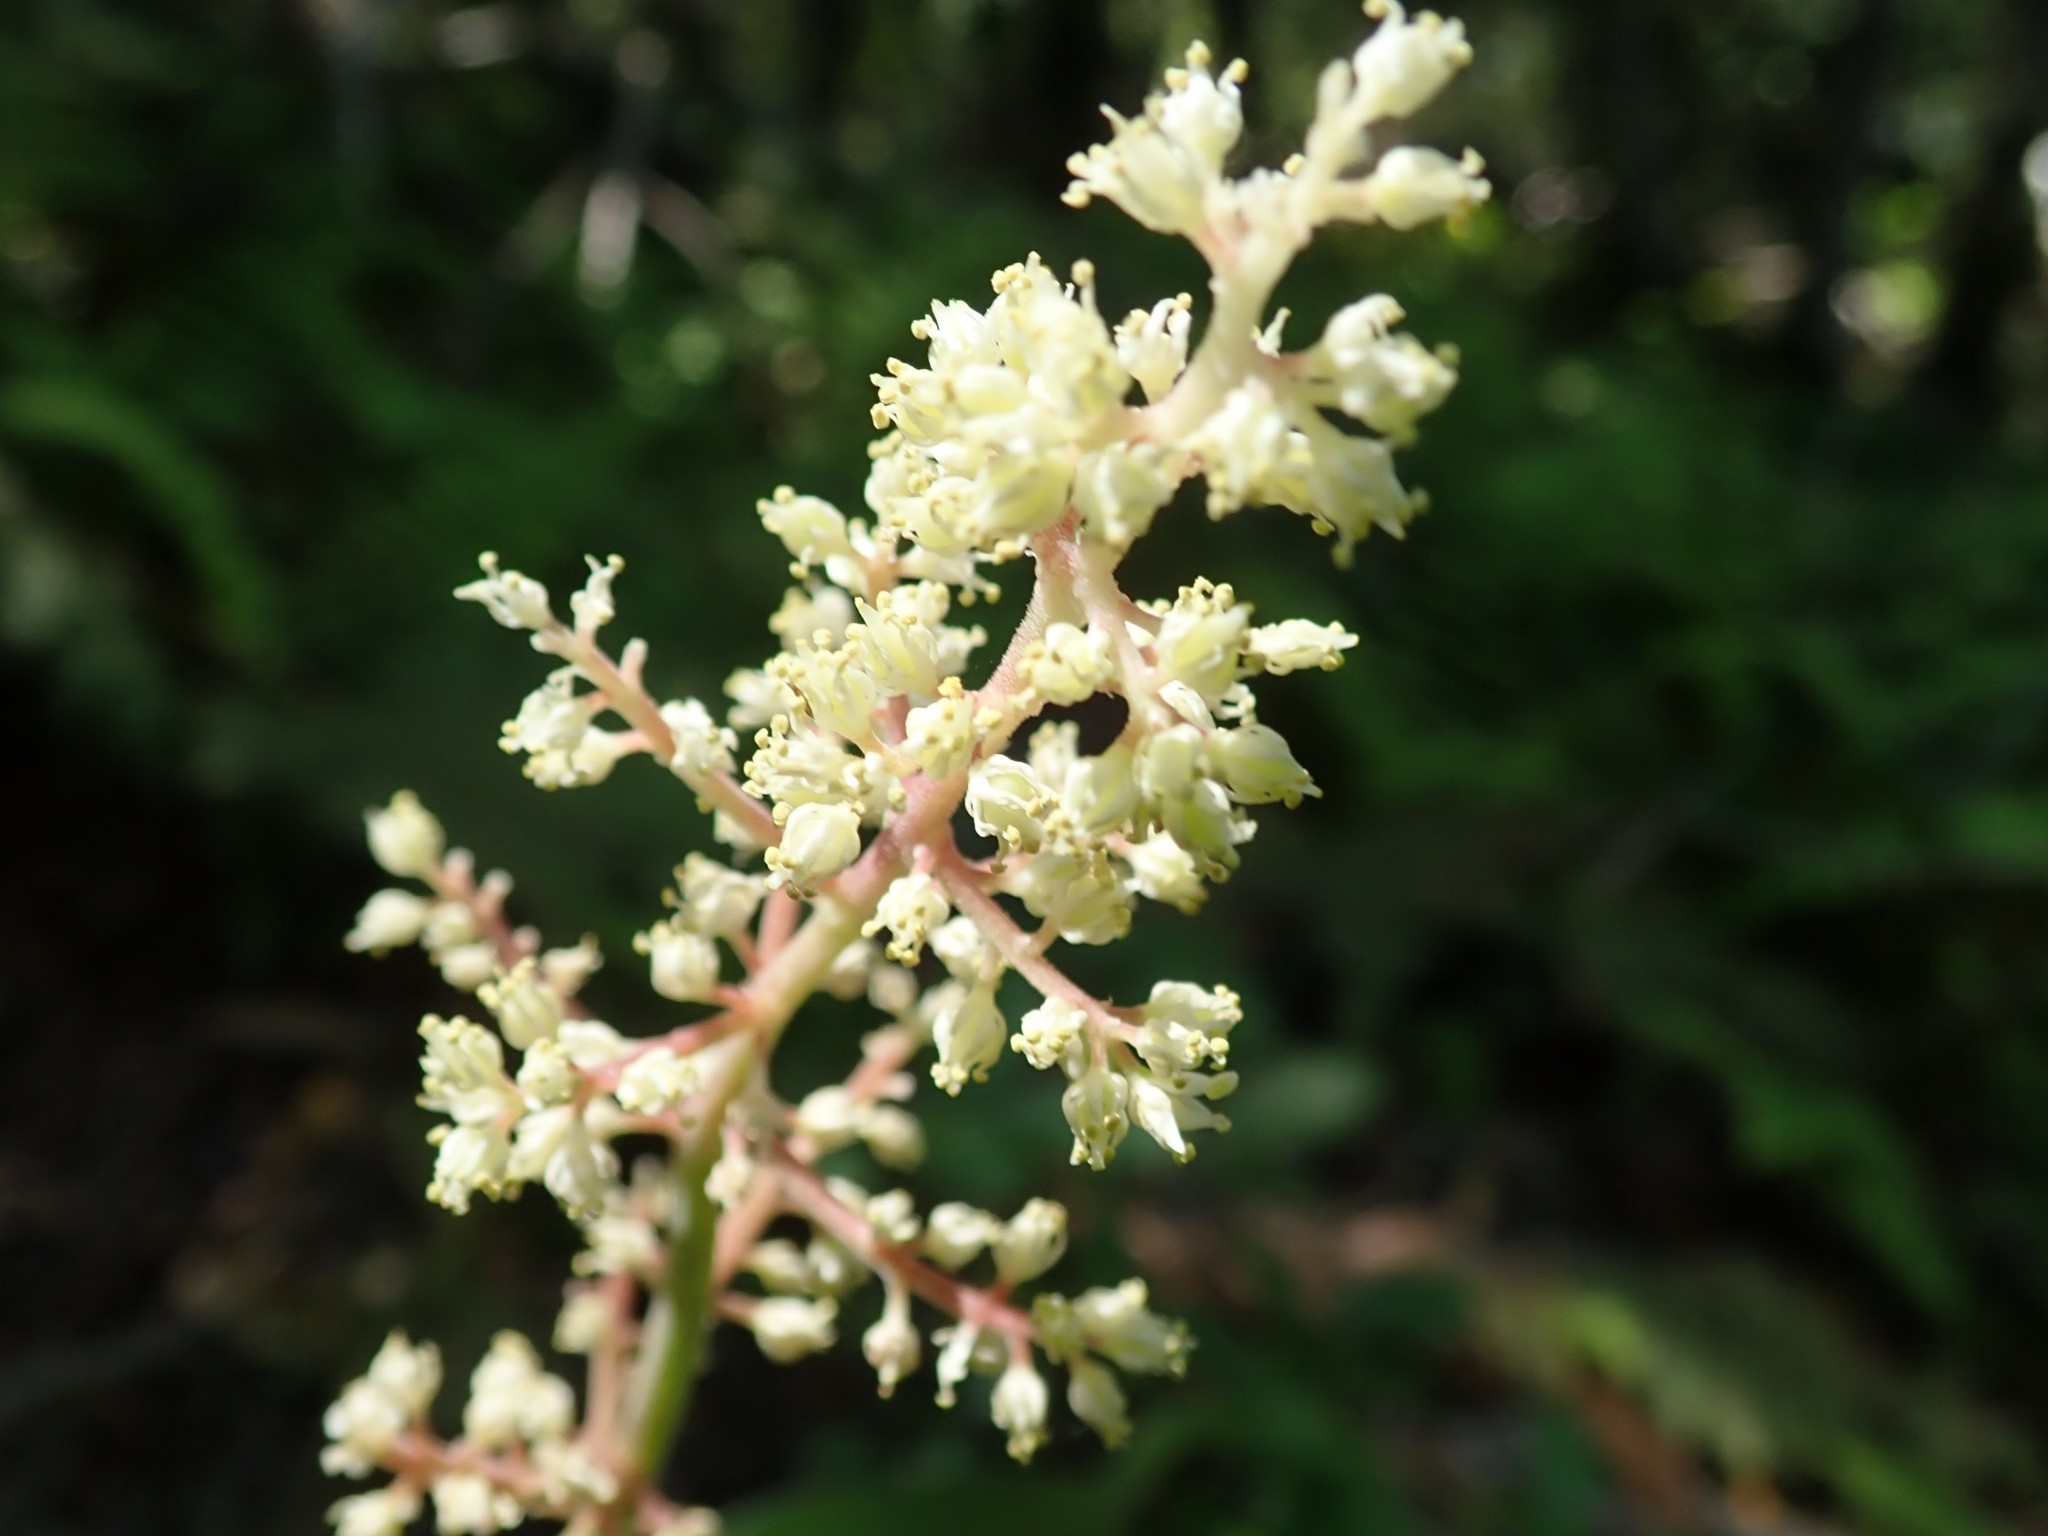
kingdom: Plantae
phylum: Tracheophyta
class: Liliopsida
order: Asparagales
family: Asparagaceae
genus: Maianthemum
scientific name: Maianthemum racemosum
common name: False spikenard
